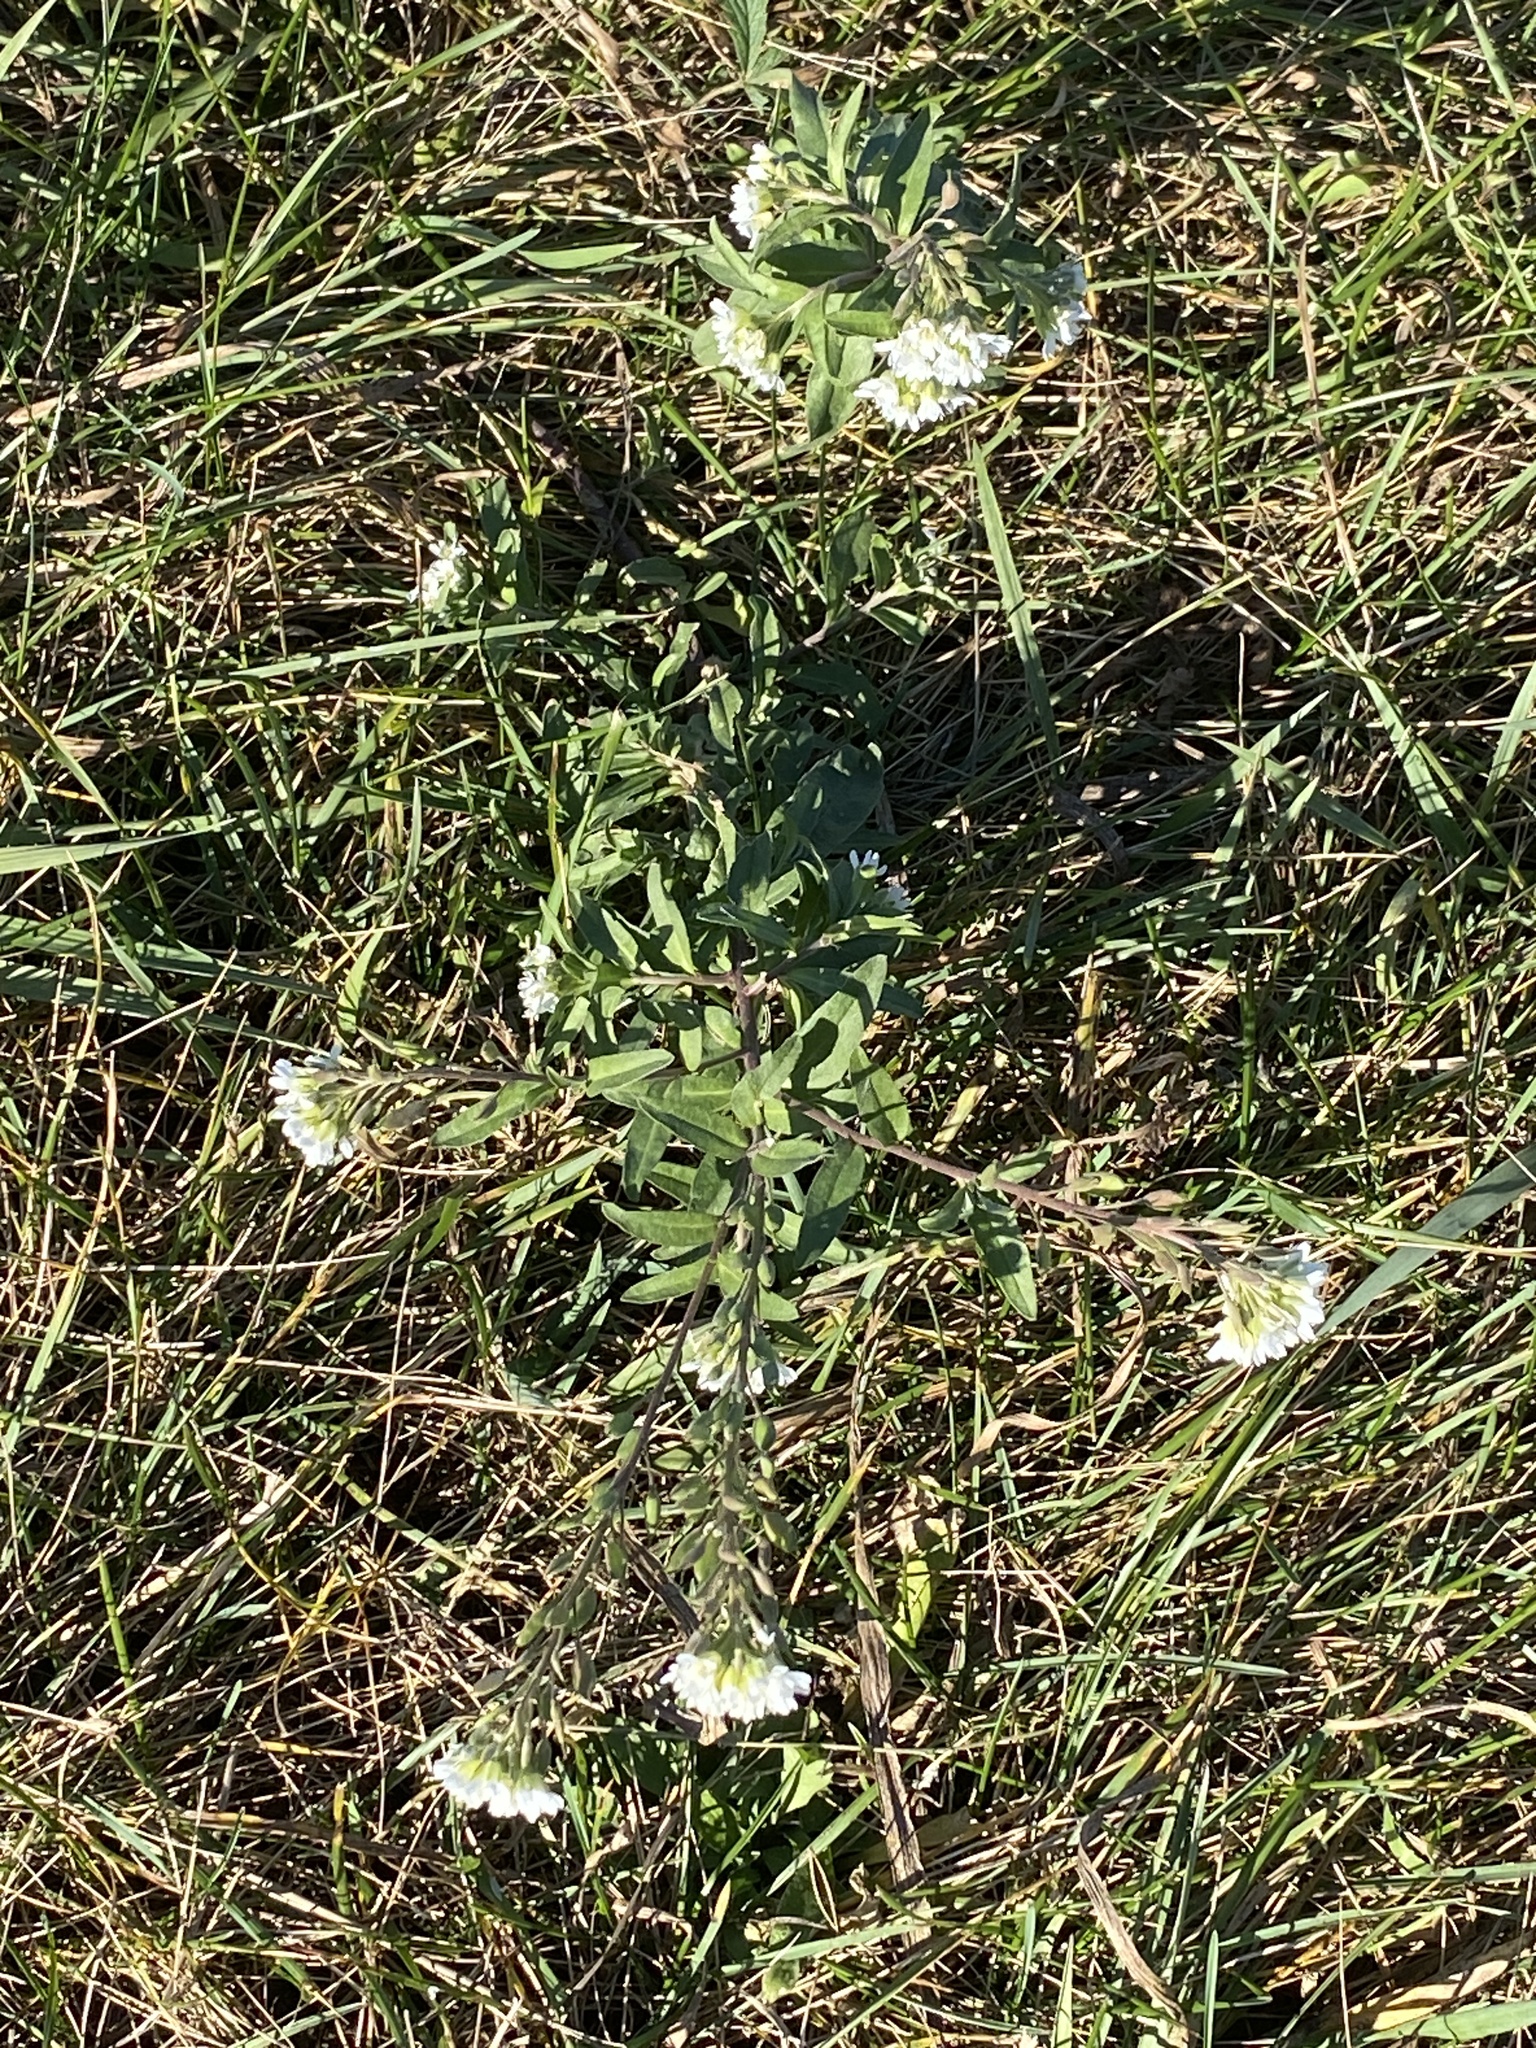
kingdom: Plantae
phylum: Tracheophyta
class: Magnoliopsida
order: Brassicales
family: Brassicaceae
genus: Berteroa
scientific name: Berteroa incana
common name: Hoary alison
